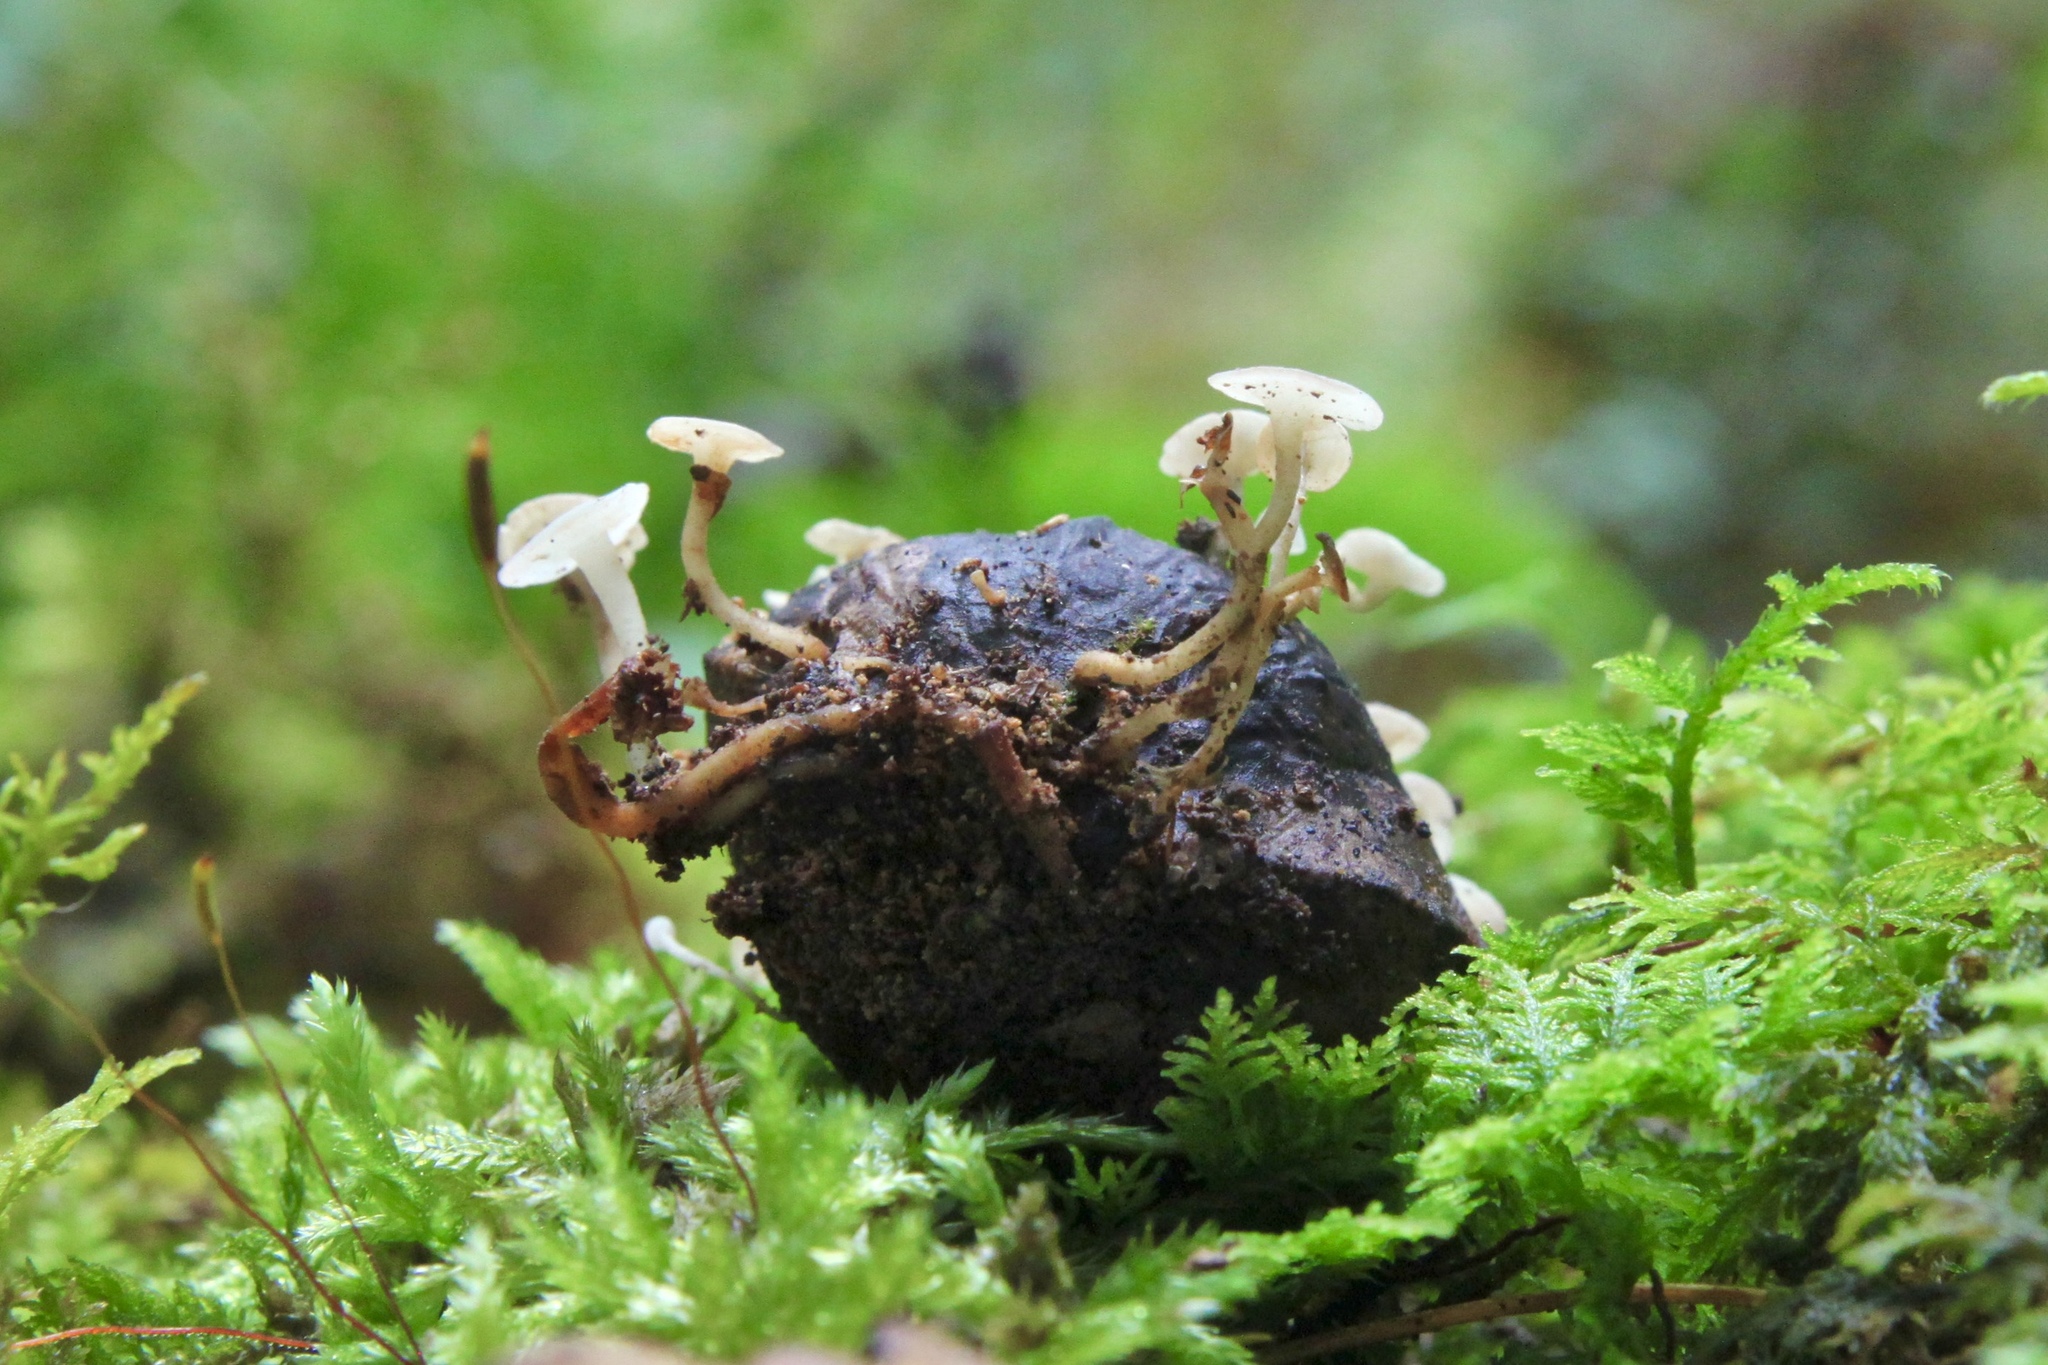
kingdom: Fungi
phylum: Ascomycota
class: Leotiomycetes
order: Helotiales
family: Helotiaceae
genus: Hymenoscyphus
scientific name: Hymenoscyphus fructigenus
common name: Nut disco
